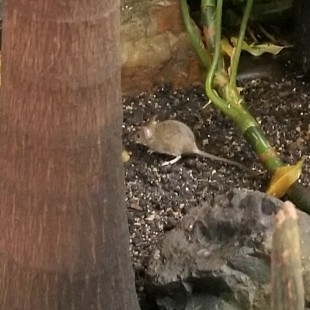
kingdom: Animalia
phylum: Chordata
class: Mammalia
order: Rodentia
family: Muridae
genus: Mus
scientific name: Mus musculus
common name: House mouse
